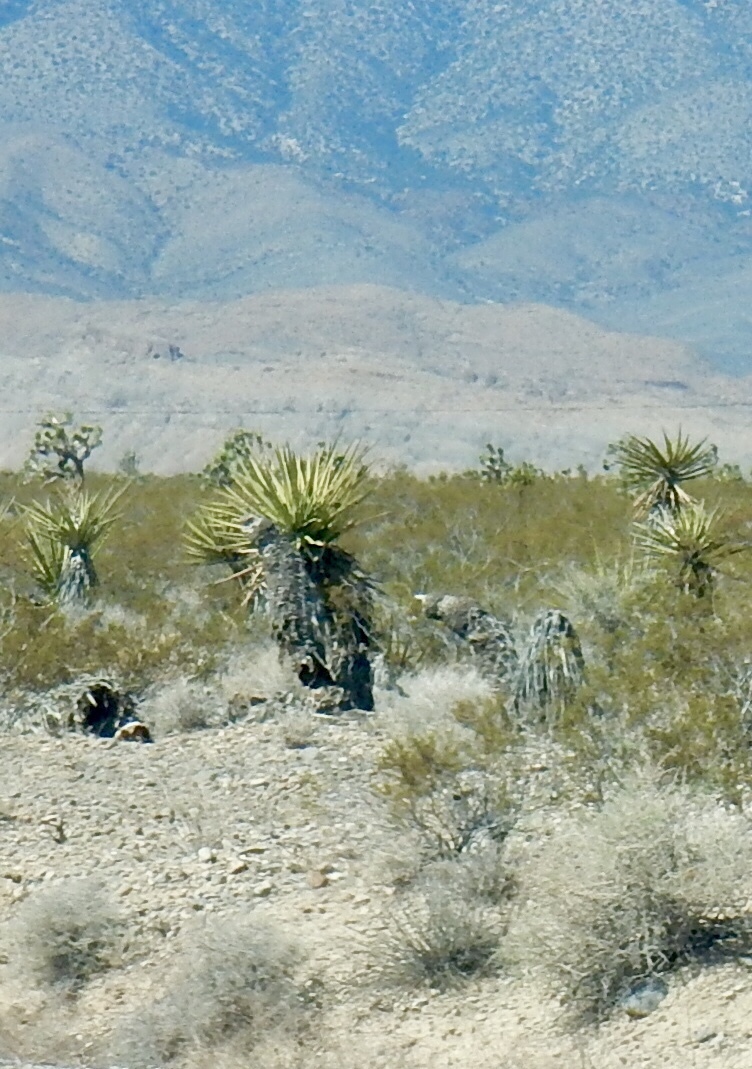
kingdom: Plantae
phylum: Tracheophyta
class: Liliopsida
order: Asparagales
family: Asparagaceae
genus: Yucca
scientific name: Yucca schidigera
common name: Mojave yucca
